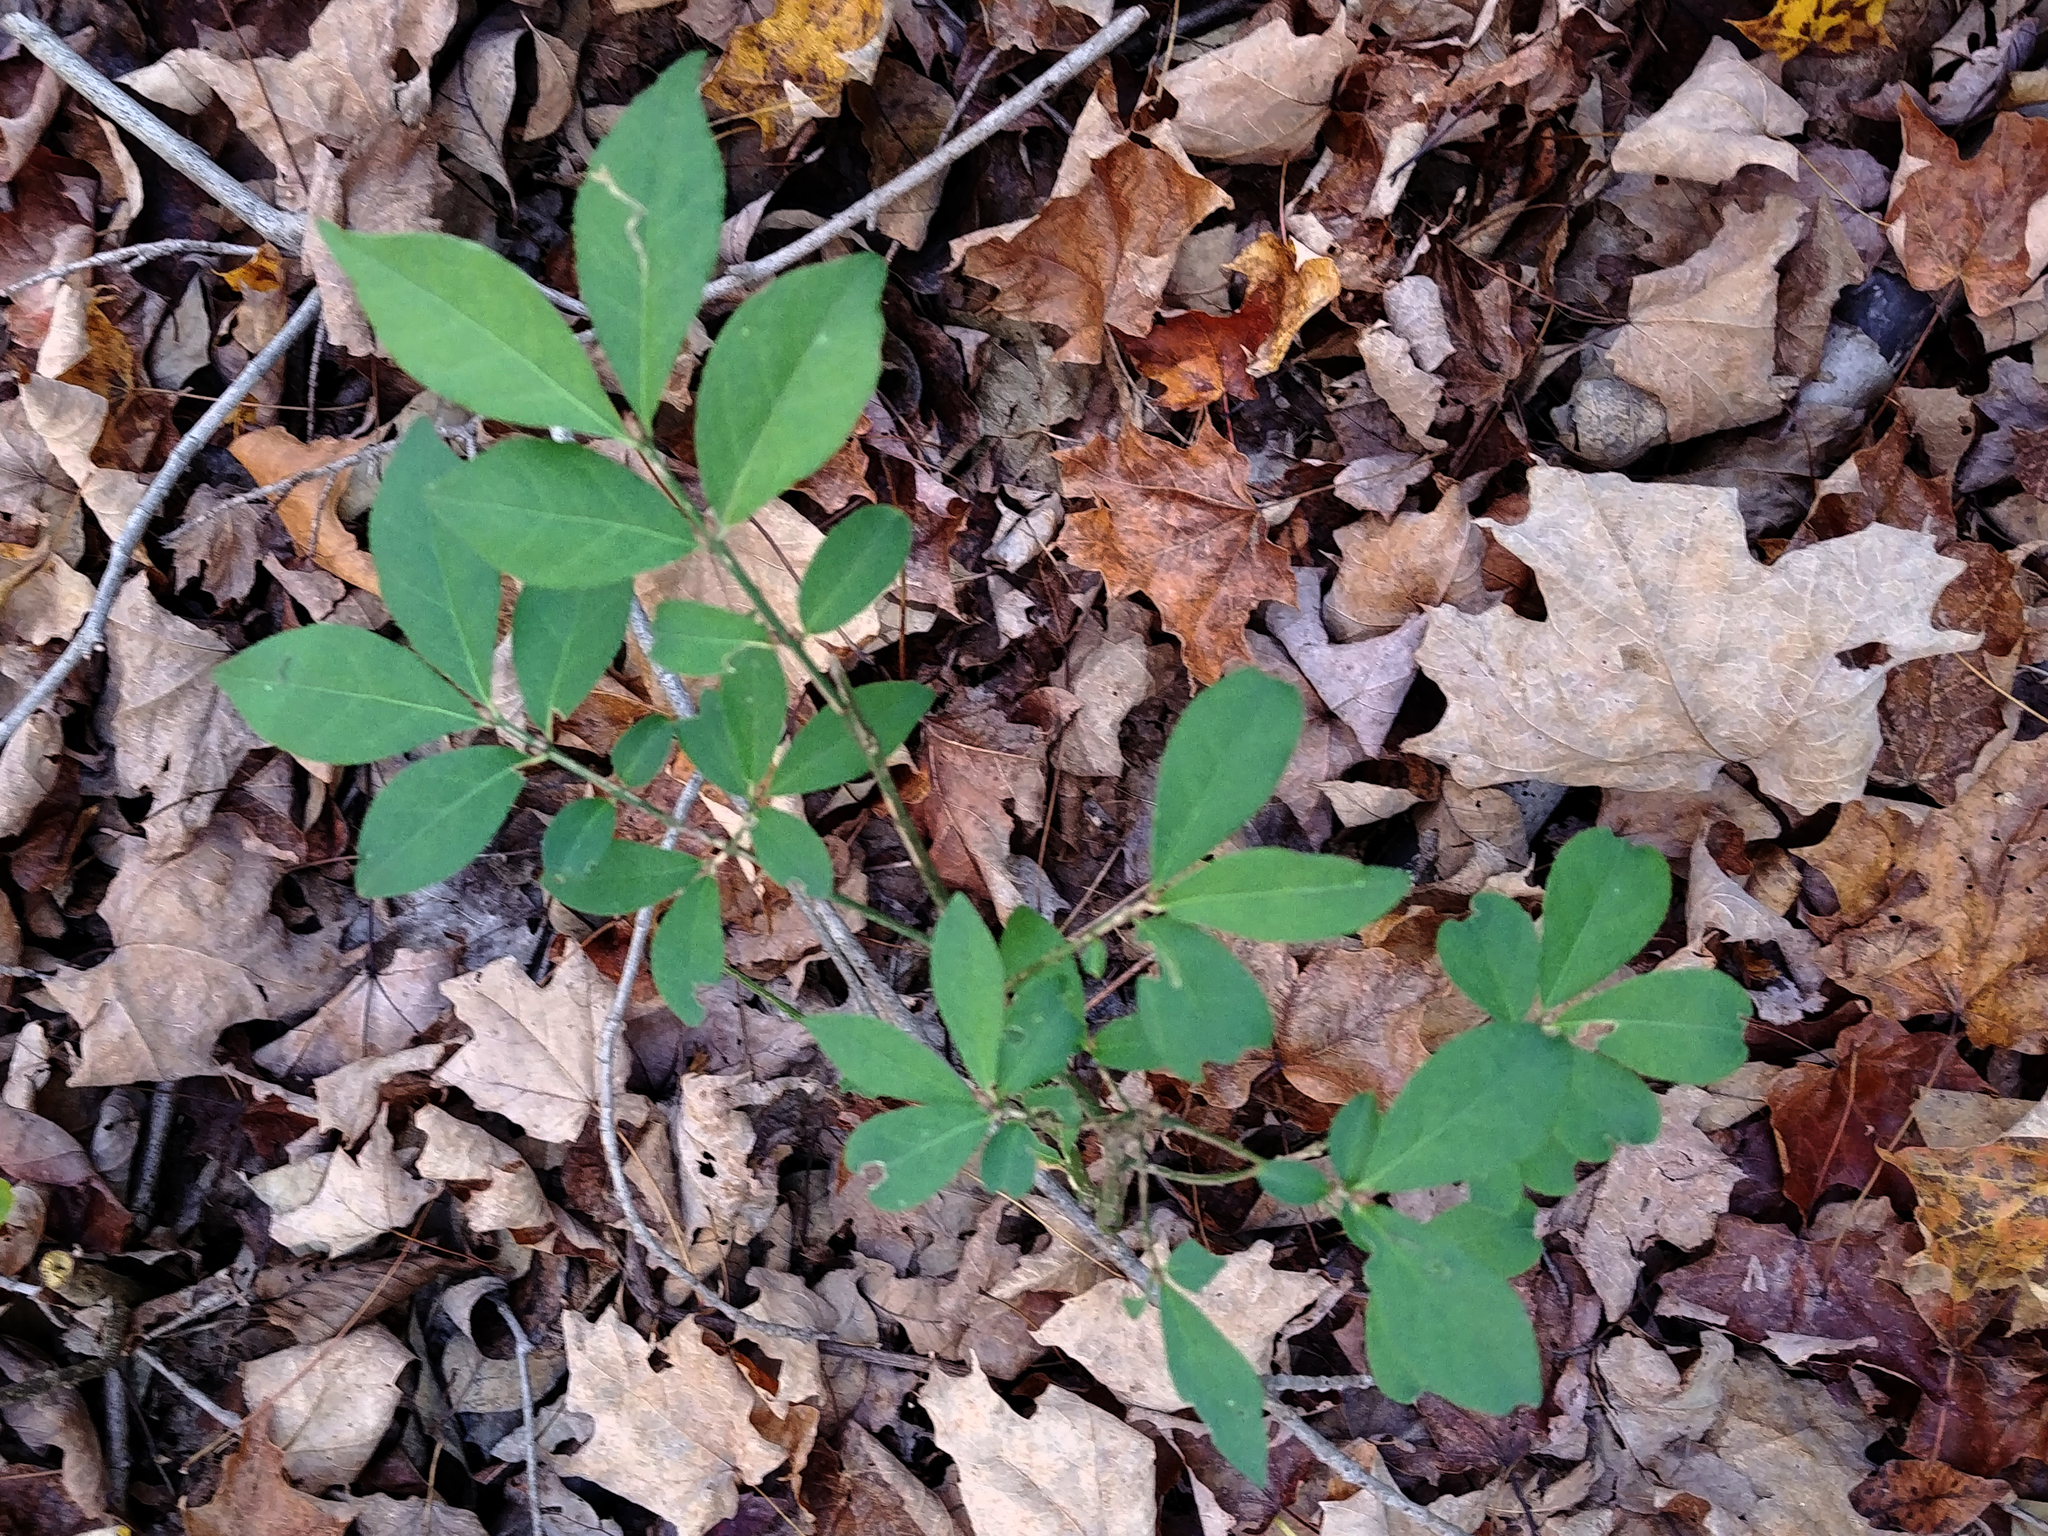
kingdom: Plantae
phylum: Tracheophyta
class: Magnoliopsida
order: Celastrales
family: Celastraceae
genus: Euonymus
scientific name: Euonymus alatus
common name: Winged euonymus
